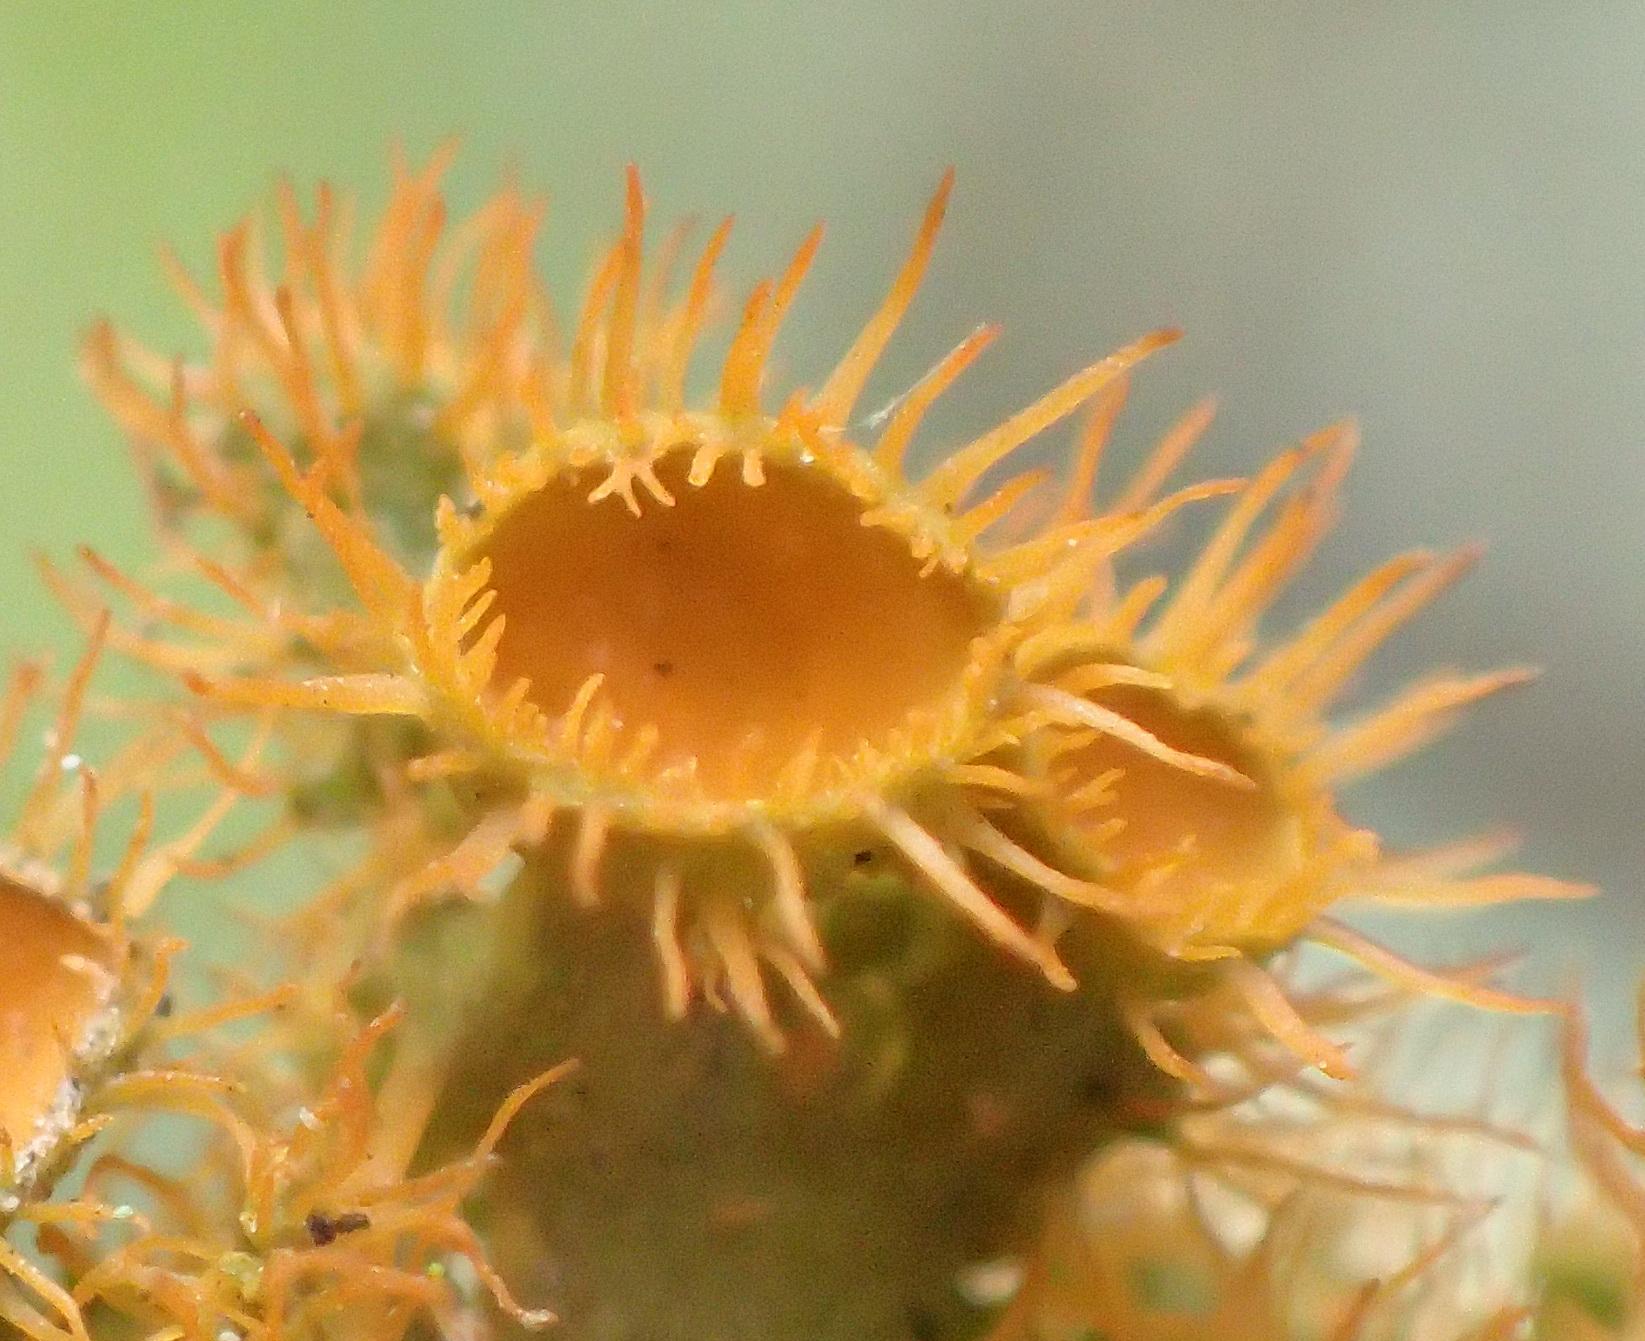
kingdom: Fungi
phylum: Ascomycota
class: Lecanoromycetes
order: Teloschistales
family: Teloschistaceae
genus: Niorma
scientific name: Niorma chrysophthalma
